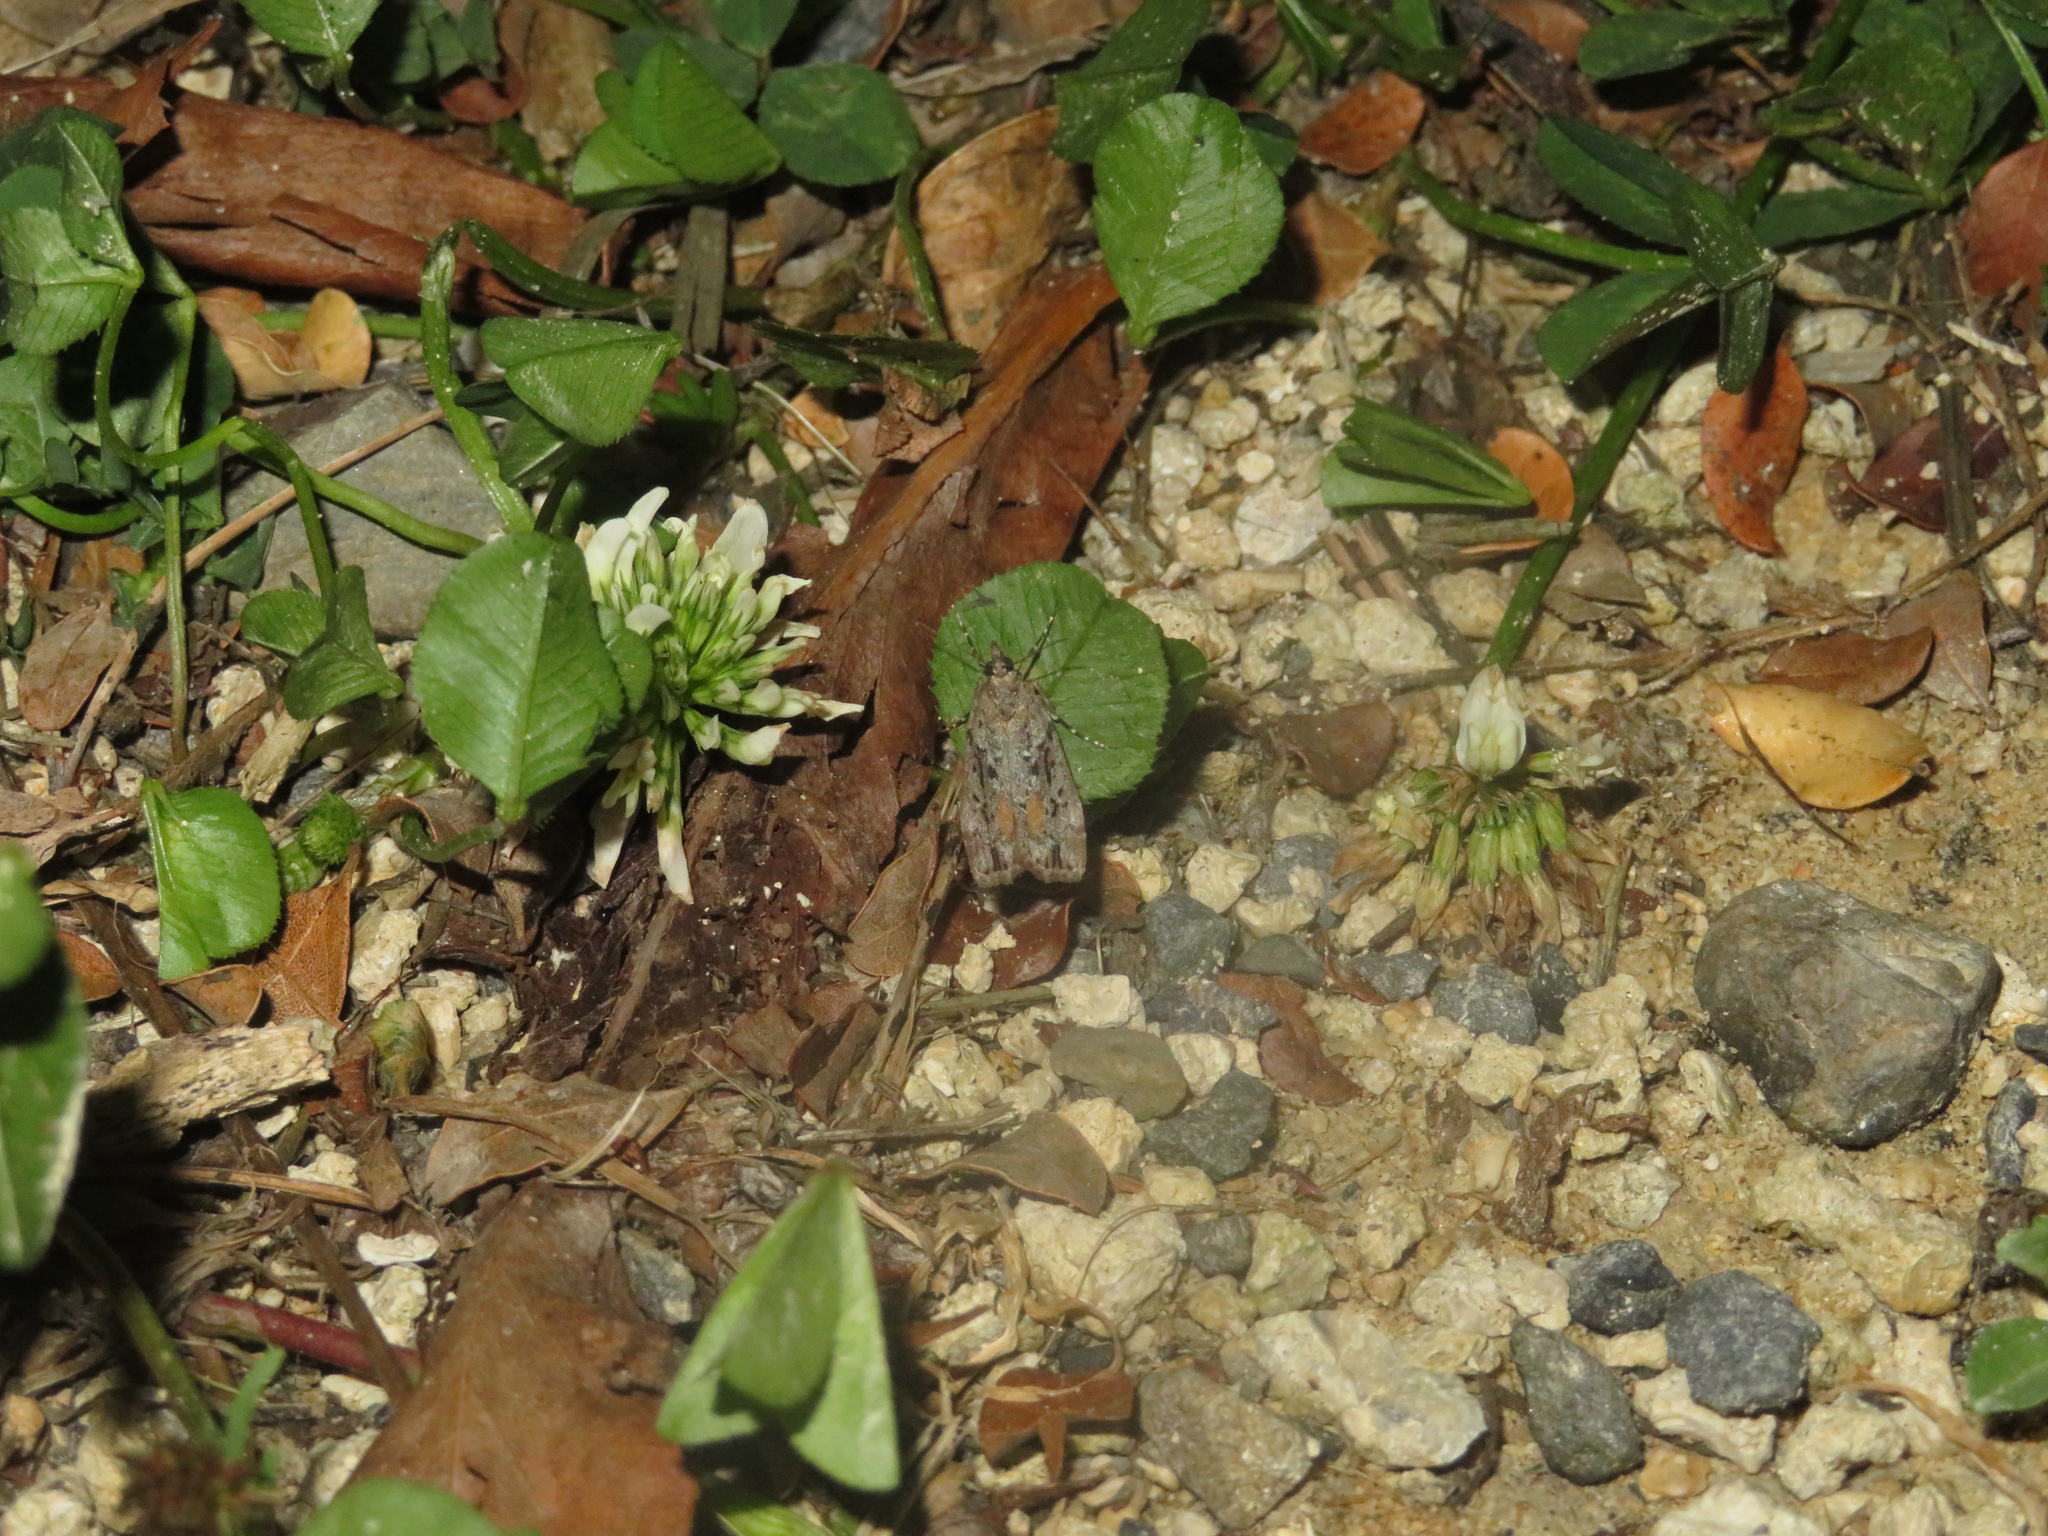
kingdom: Animalia
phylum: Arthropoda
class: Insecta
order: Lepidoptera
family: Crambidae
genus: Eudonia
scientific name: Eudonia submarginalis
